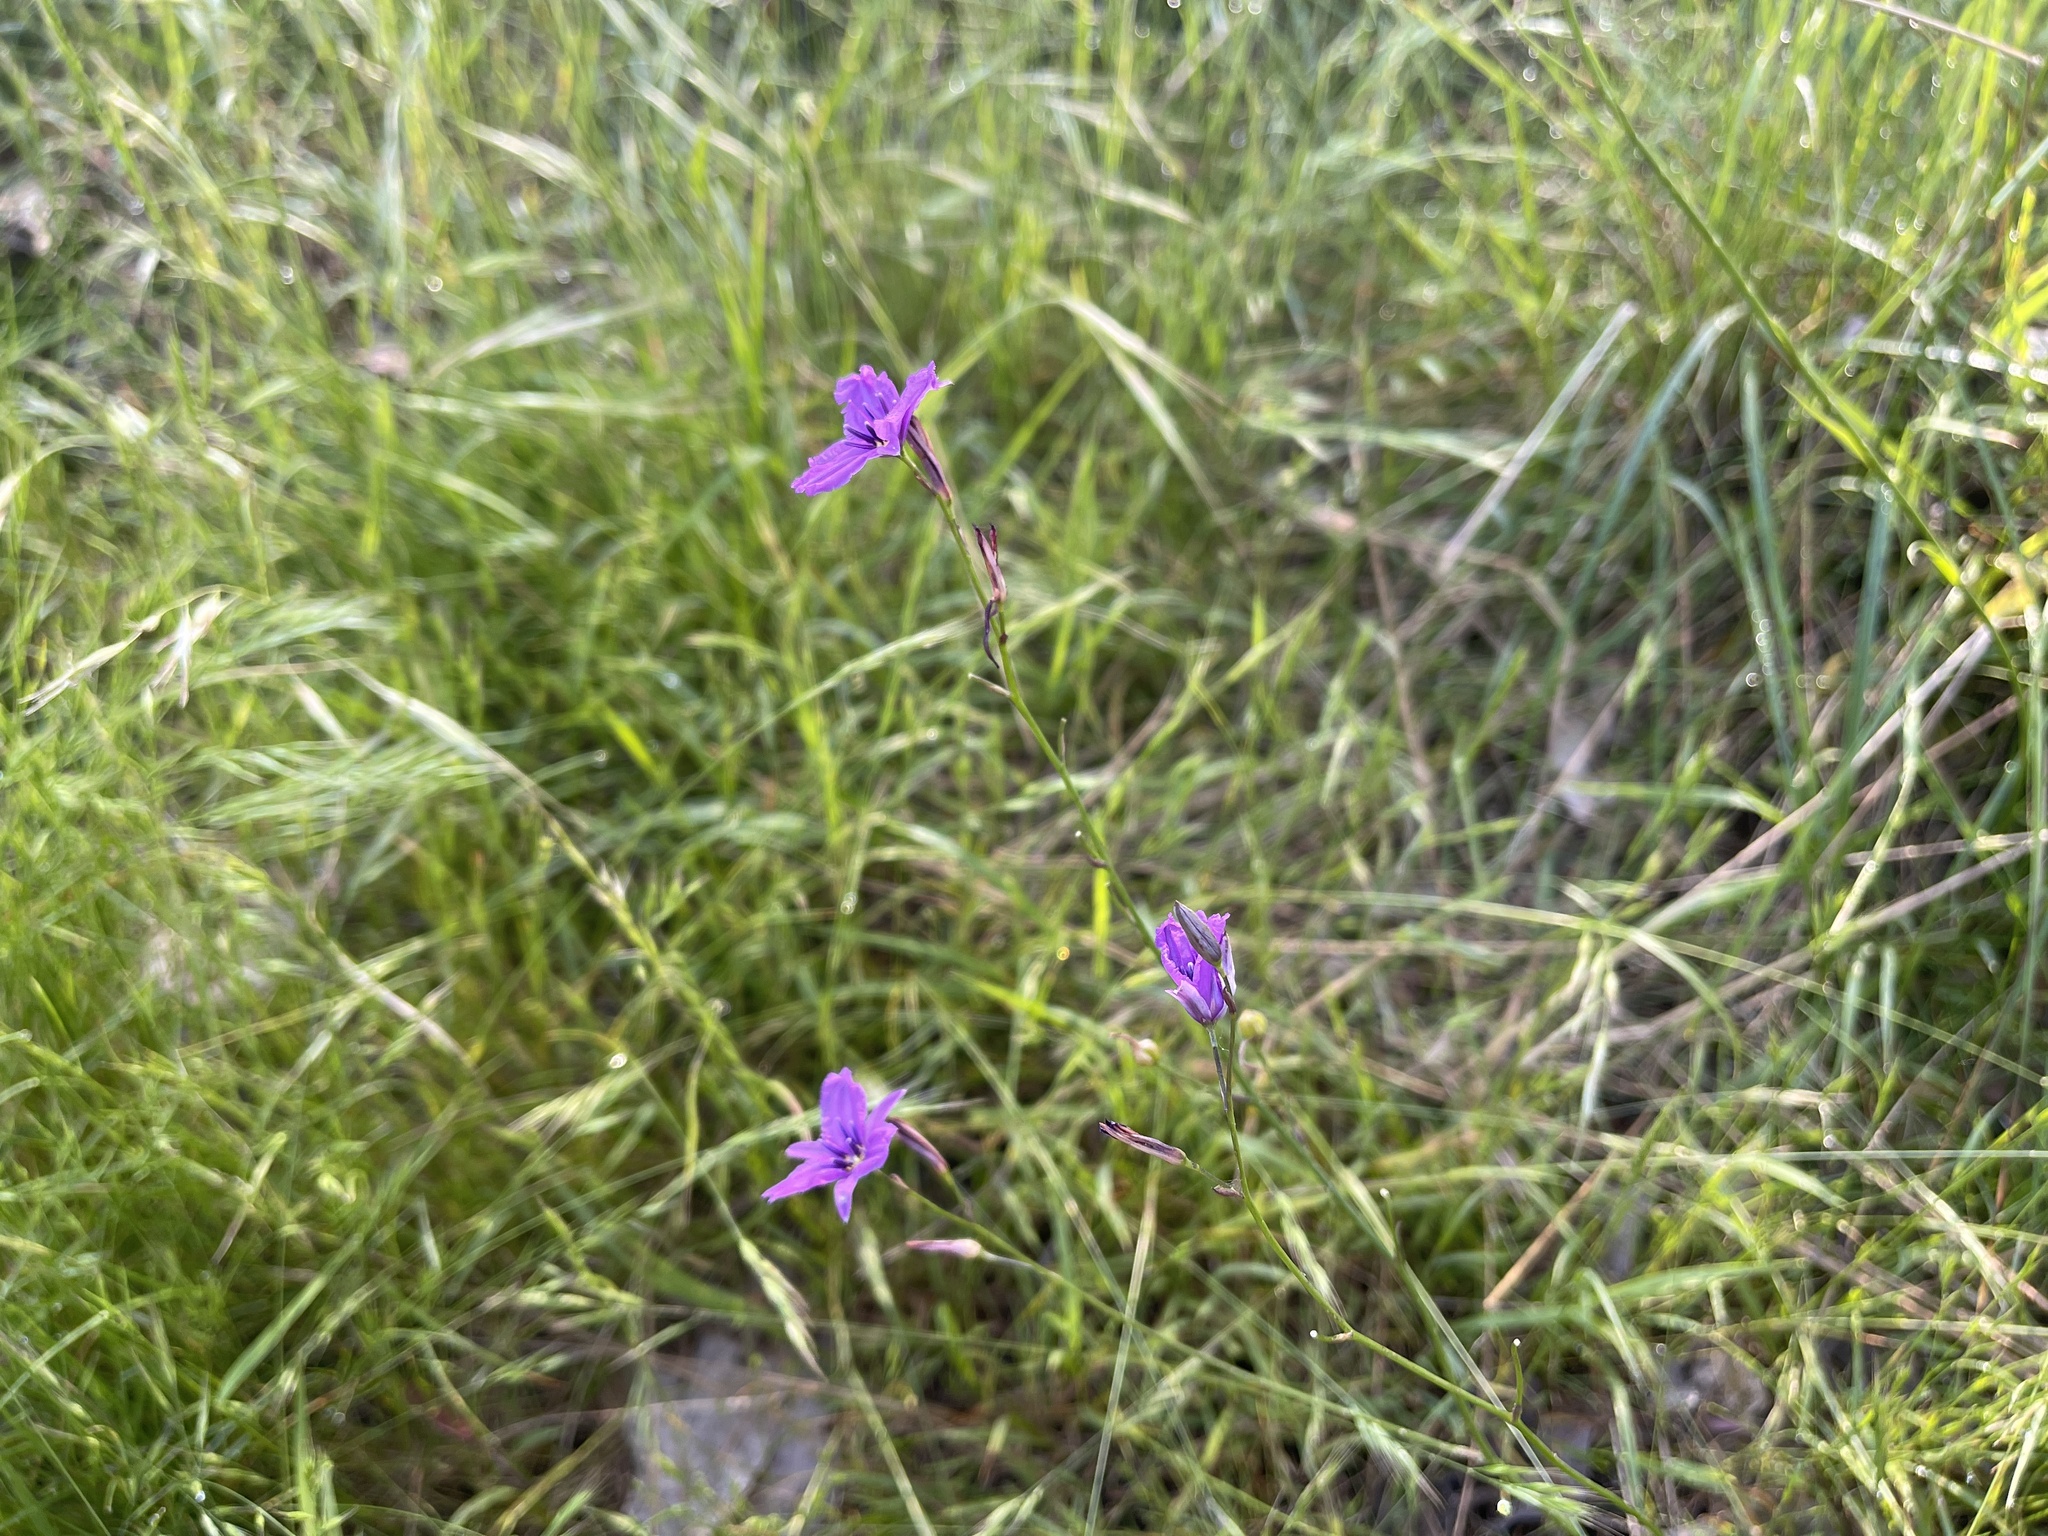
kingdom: Plantae
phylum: Tracheophyta
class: Liliopsida
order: Asparagales
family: Asparagaceae
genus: Arthropodium
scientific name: Arthropodium strictum
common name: Chocolate-lily
